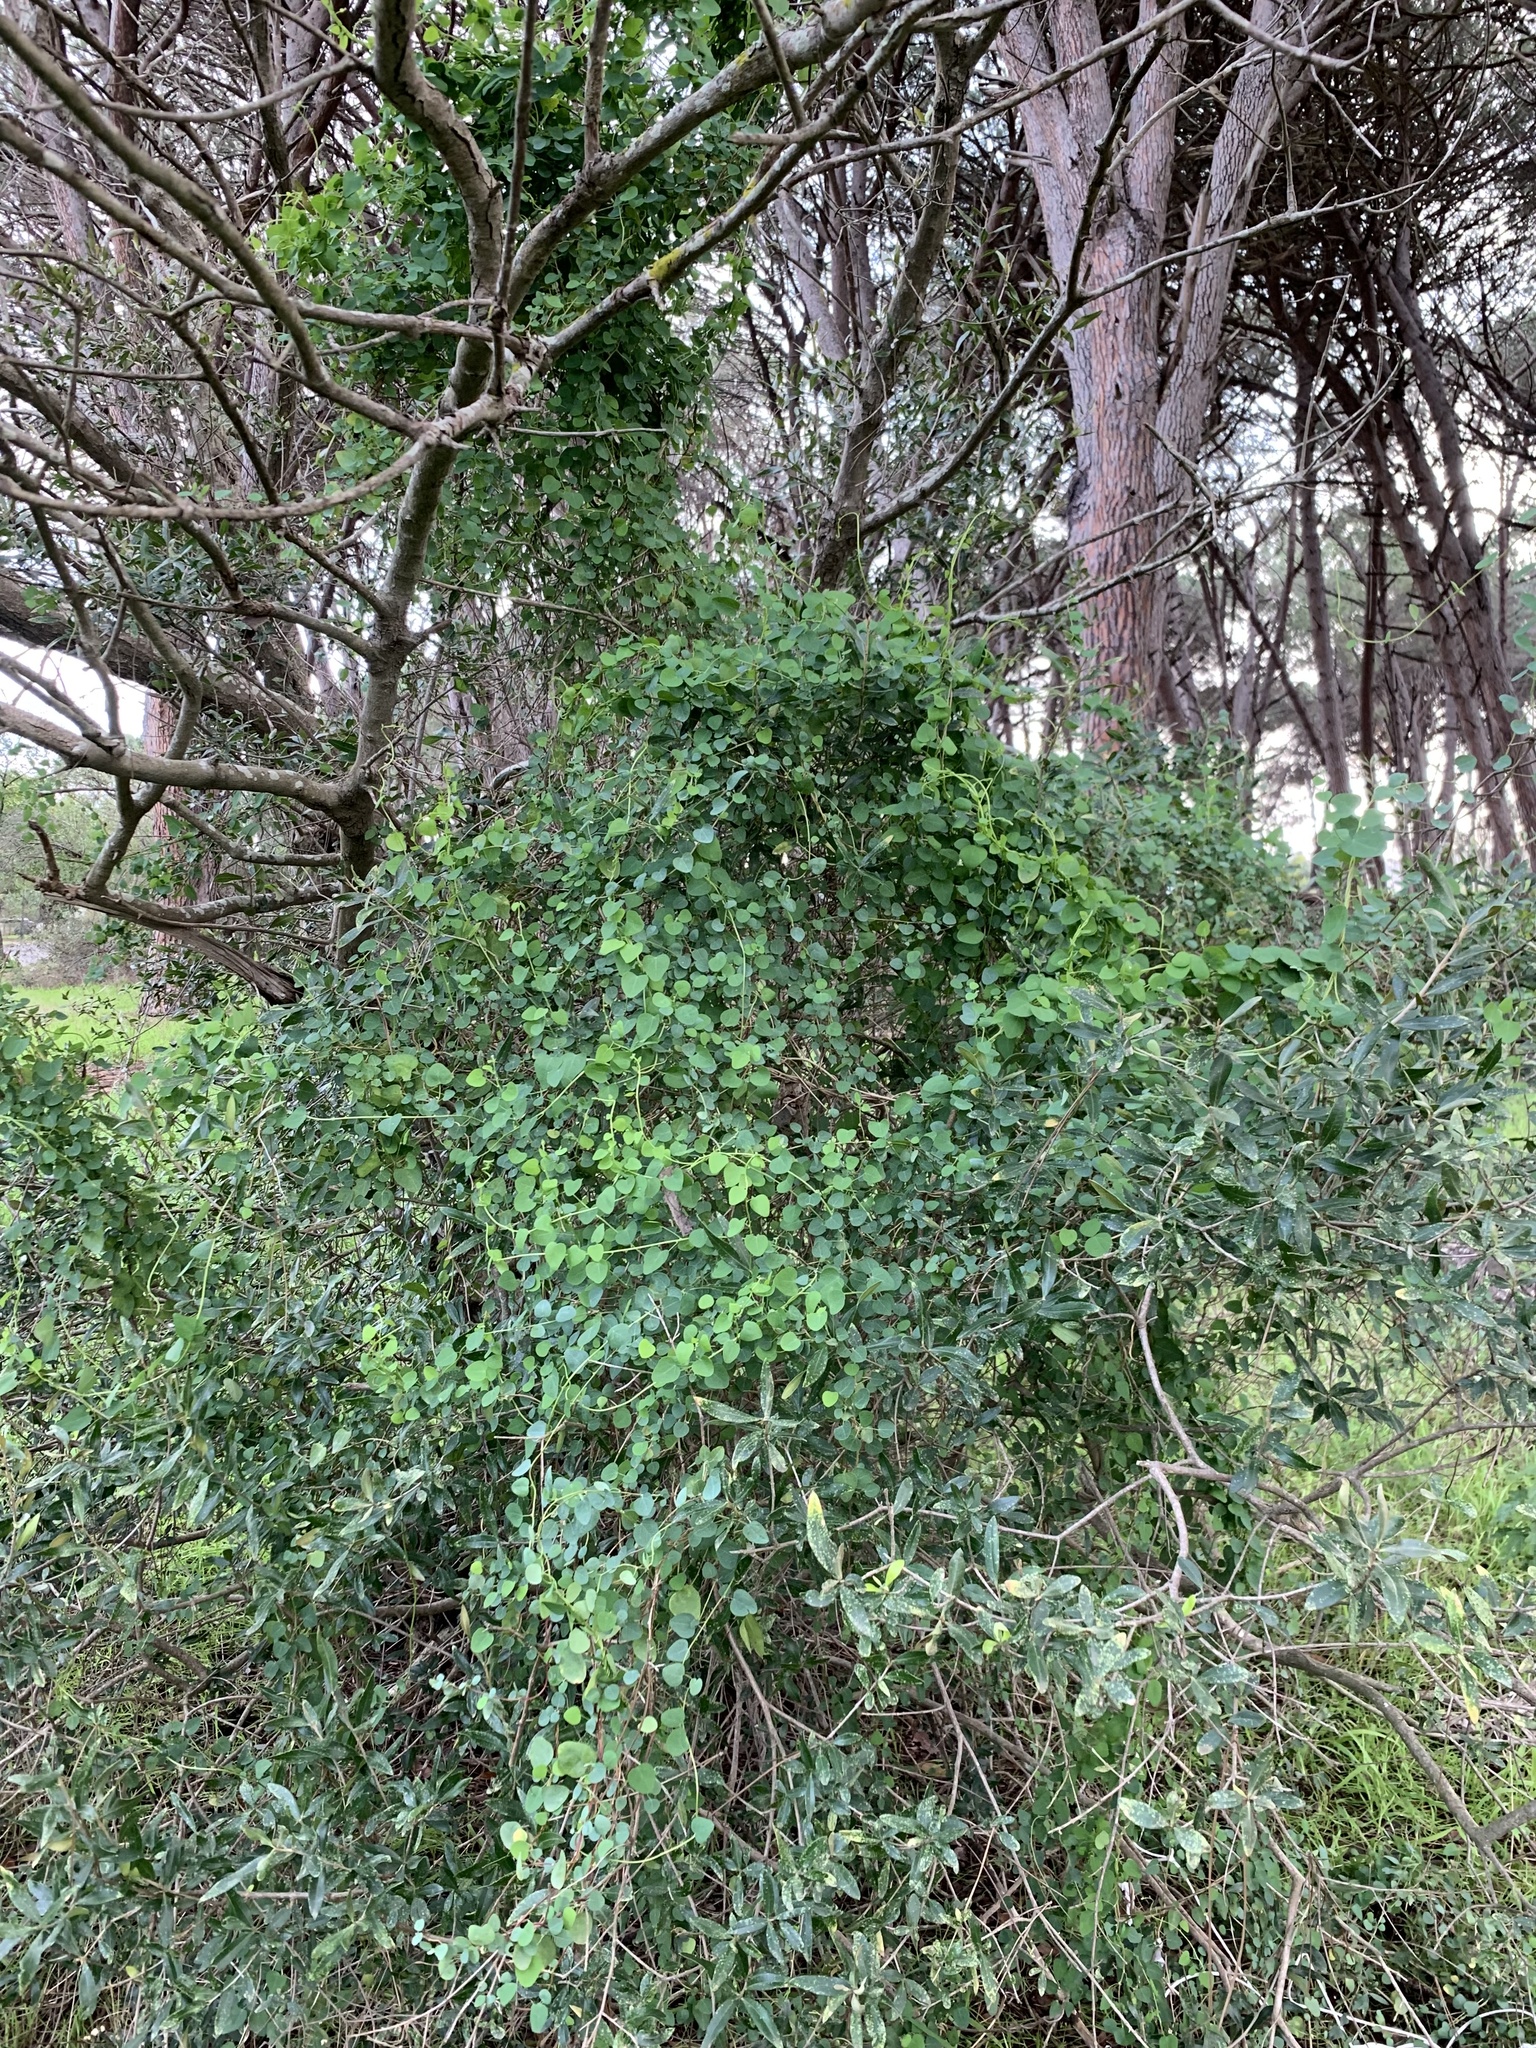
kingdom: Plantae
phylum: Tracheophyta
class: Magnoliopsida
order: Ranunculales
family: Menispermaceae
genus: Cissampelos
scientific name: Cissampelos capensis
